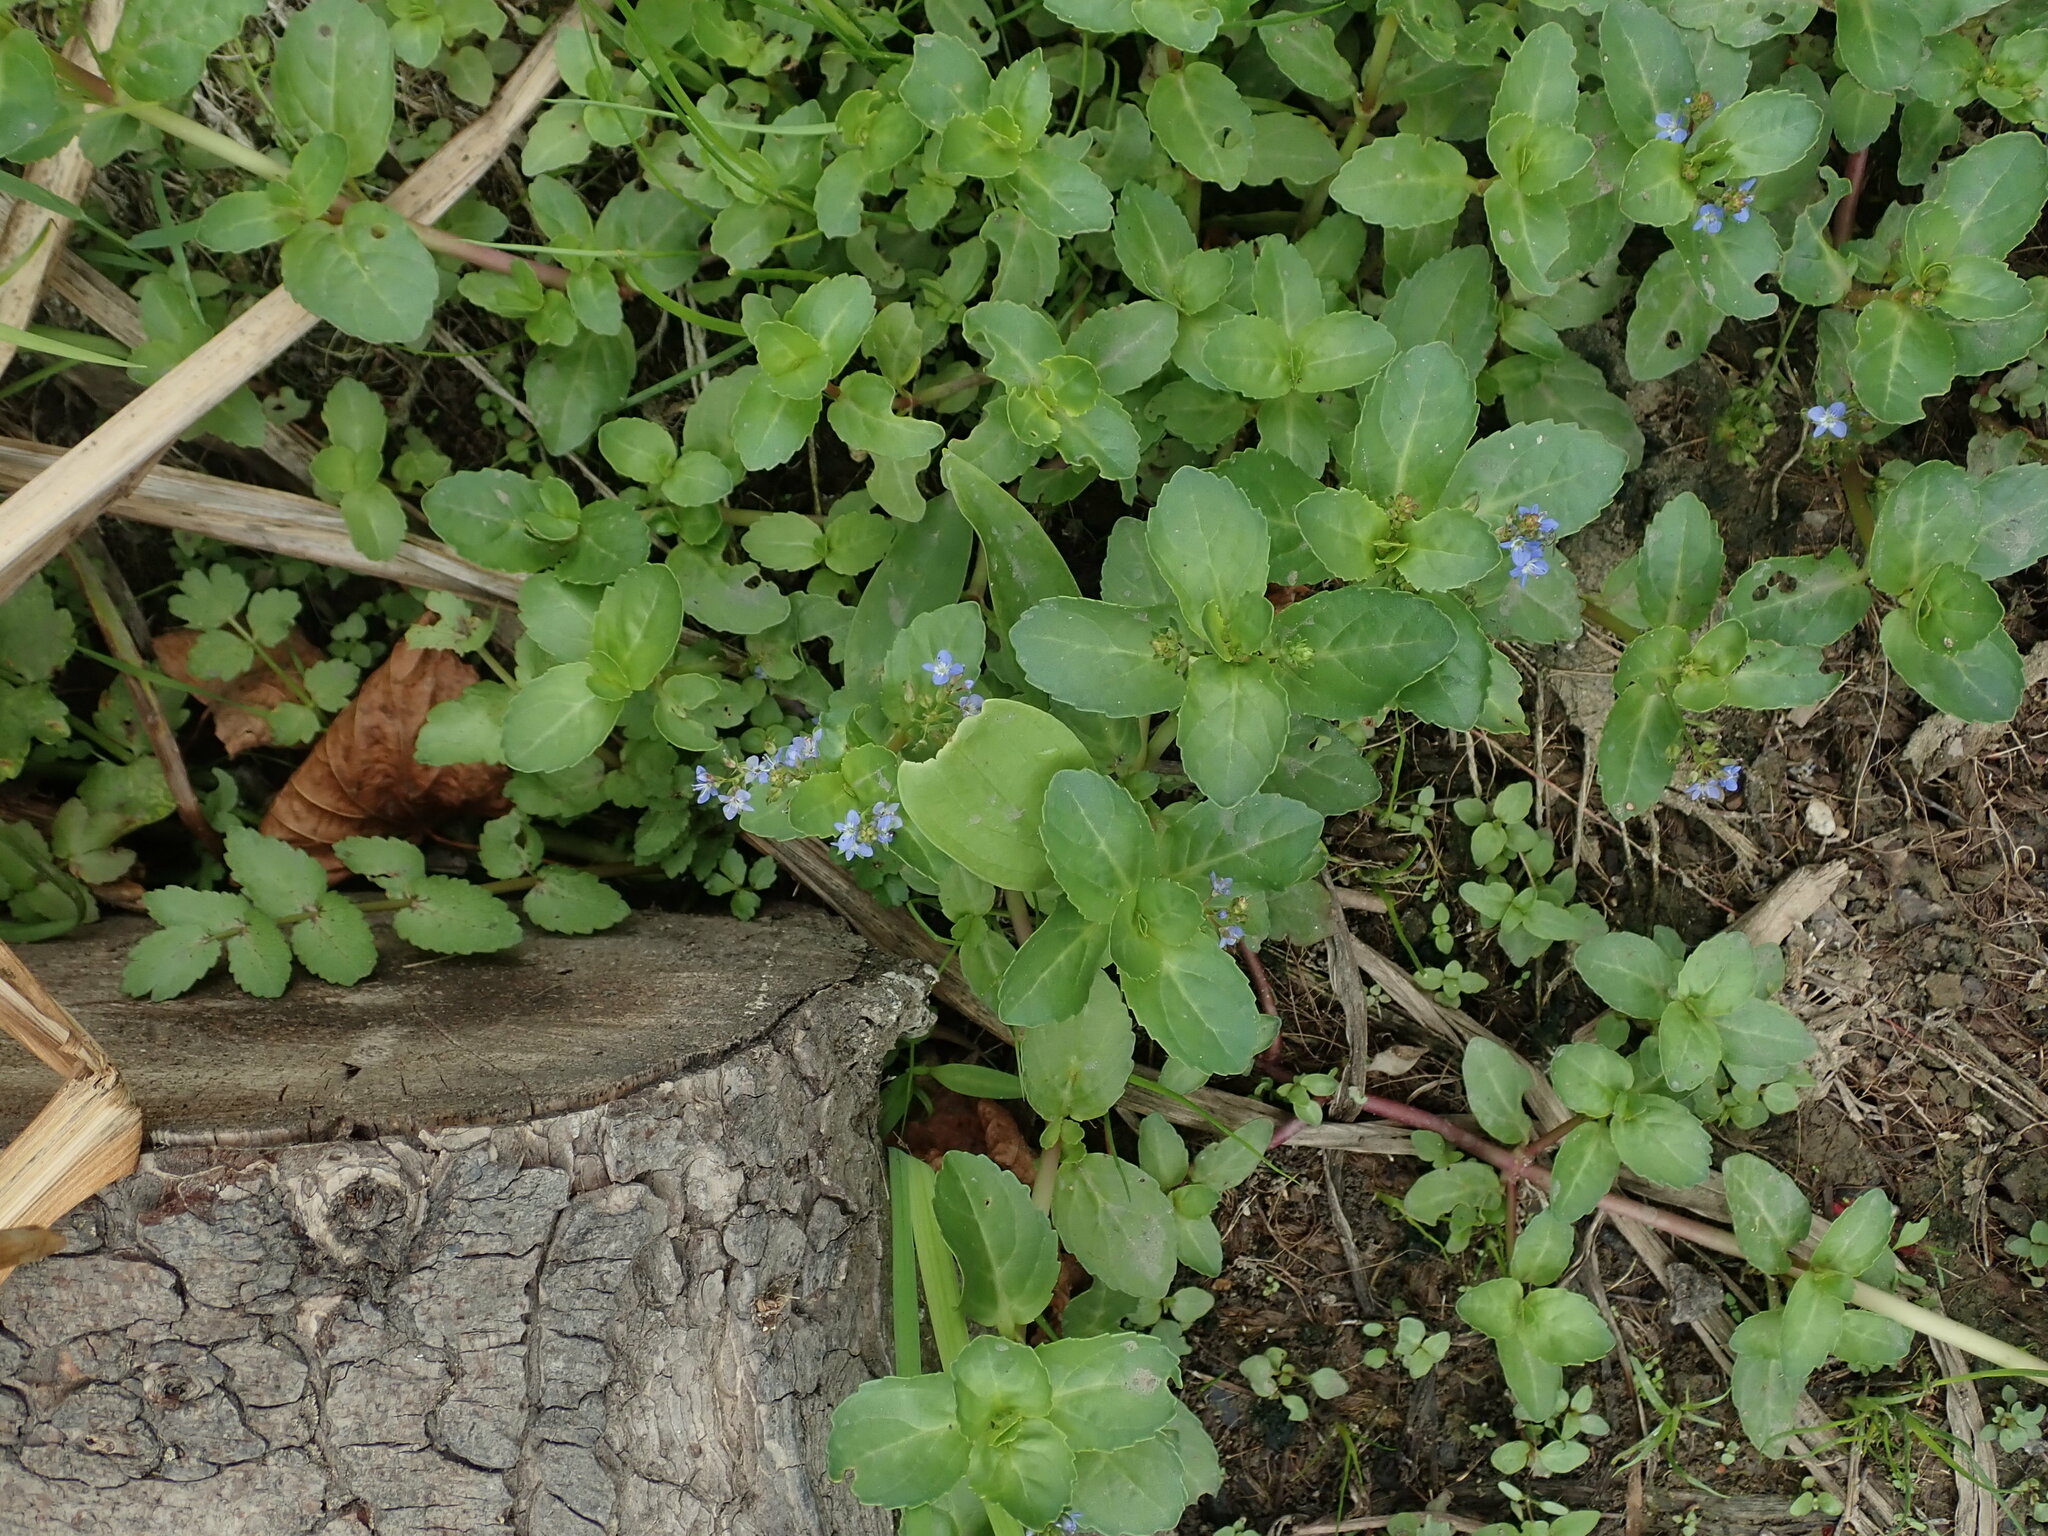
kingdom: Plantae
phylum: Tracheophyta
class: Magnoliopsida
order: Lamiales
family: Plantaginaceae
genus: Veronica
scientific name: Veronica beccabunga
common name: Brooklime
